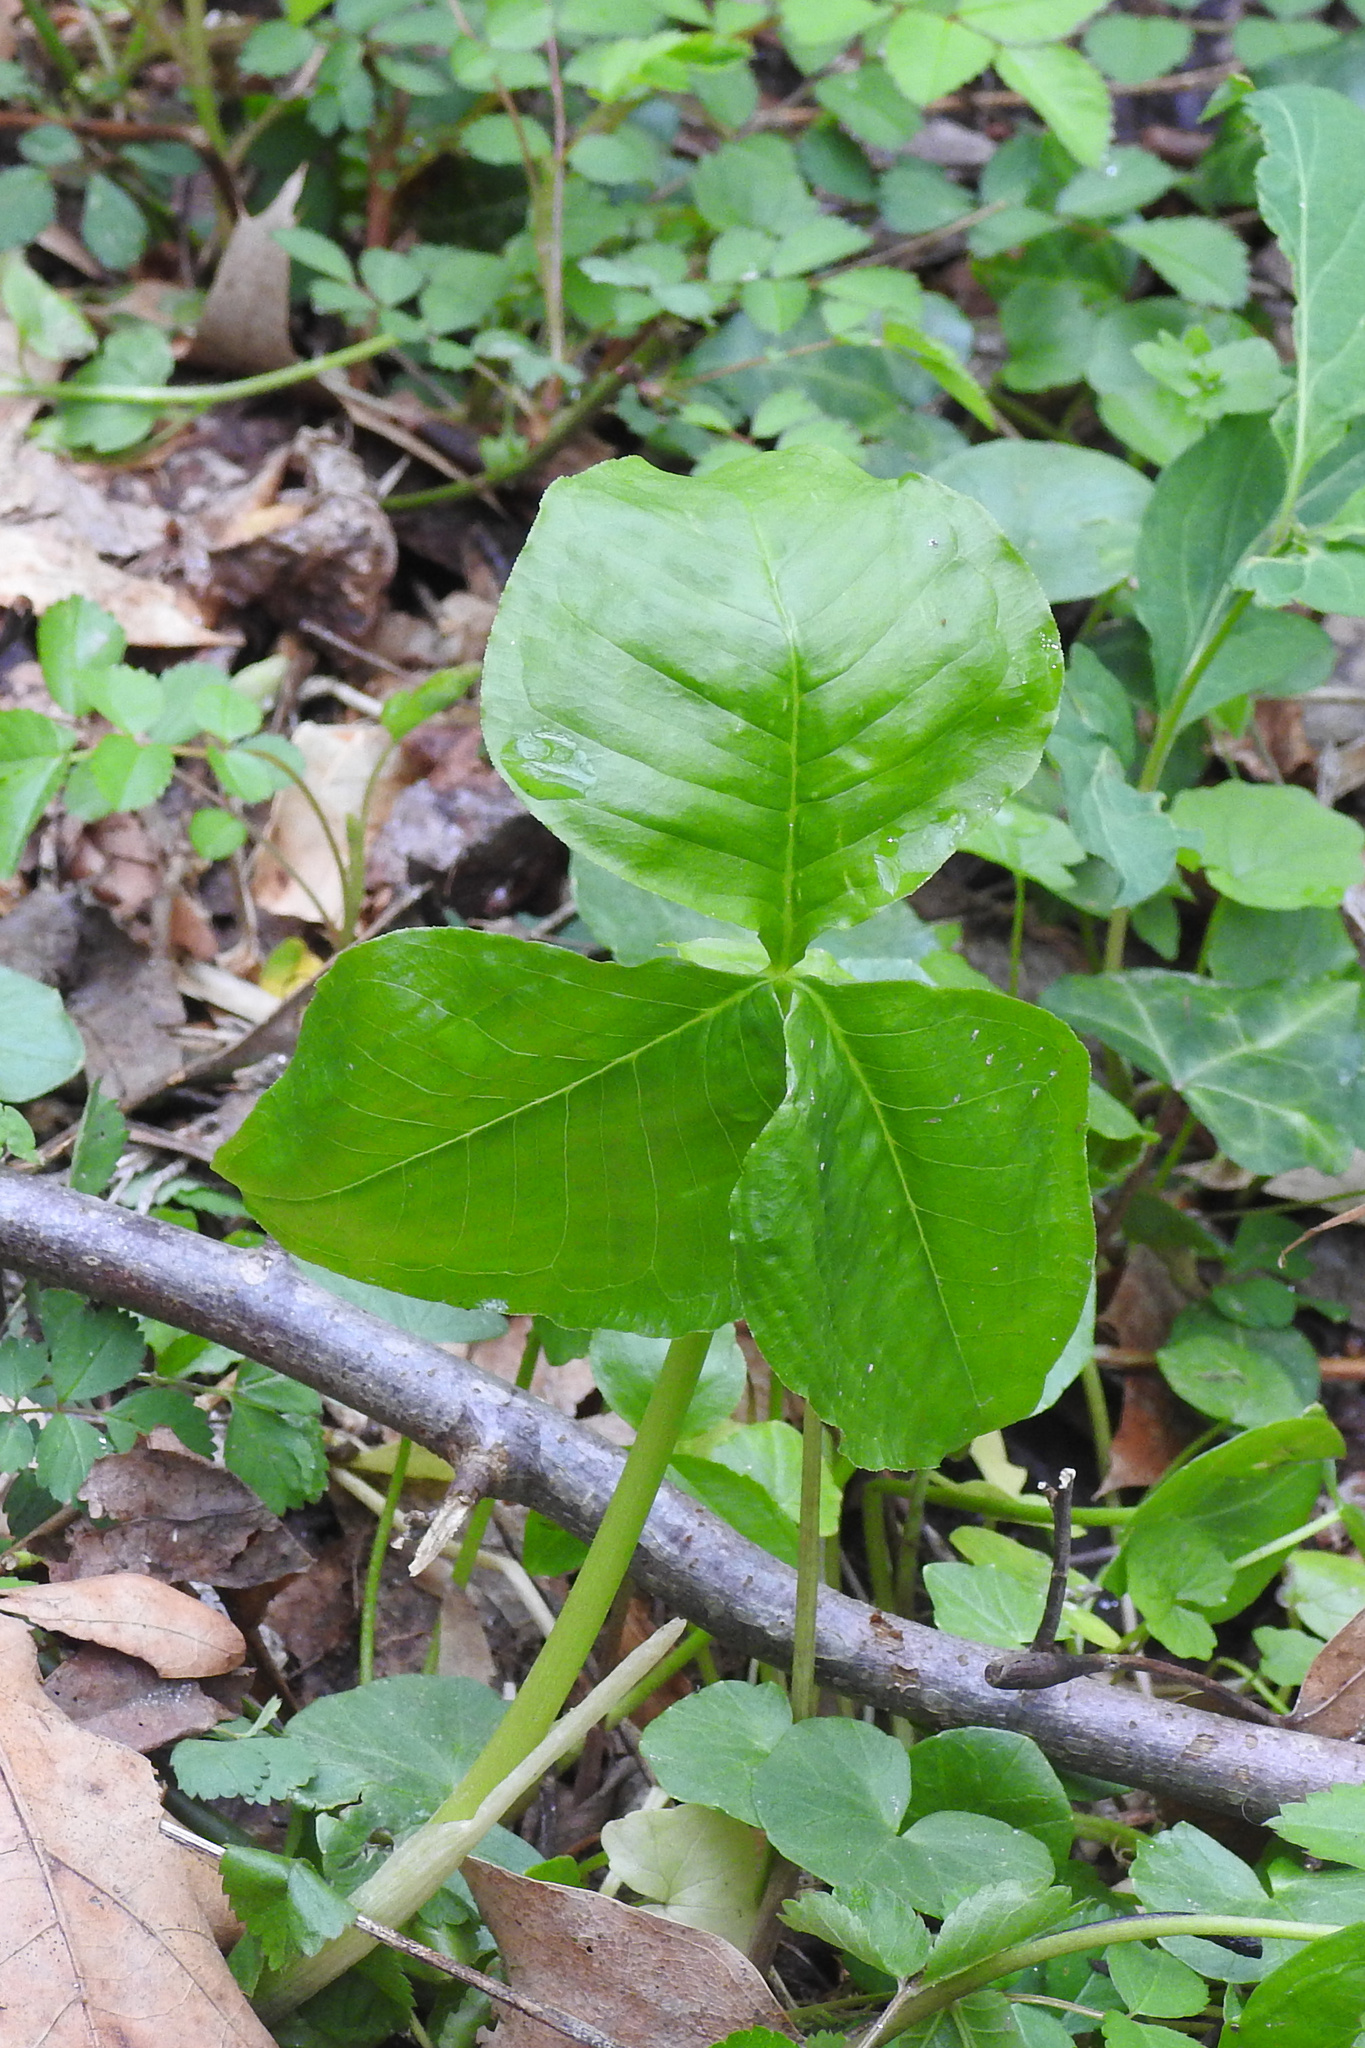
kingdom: Plantae
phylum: Tracheophyta
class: Liliopsida
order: Alismatales
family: Araceae
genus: Arisaema
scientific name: Arisaema triphyllum
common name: Jack-in-the-pulpit
